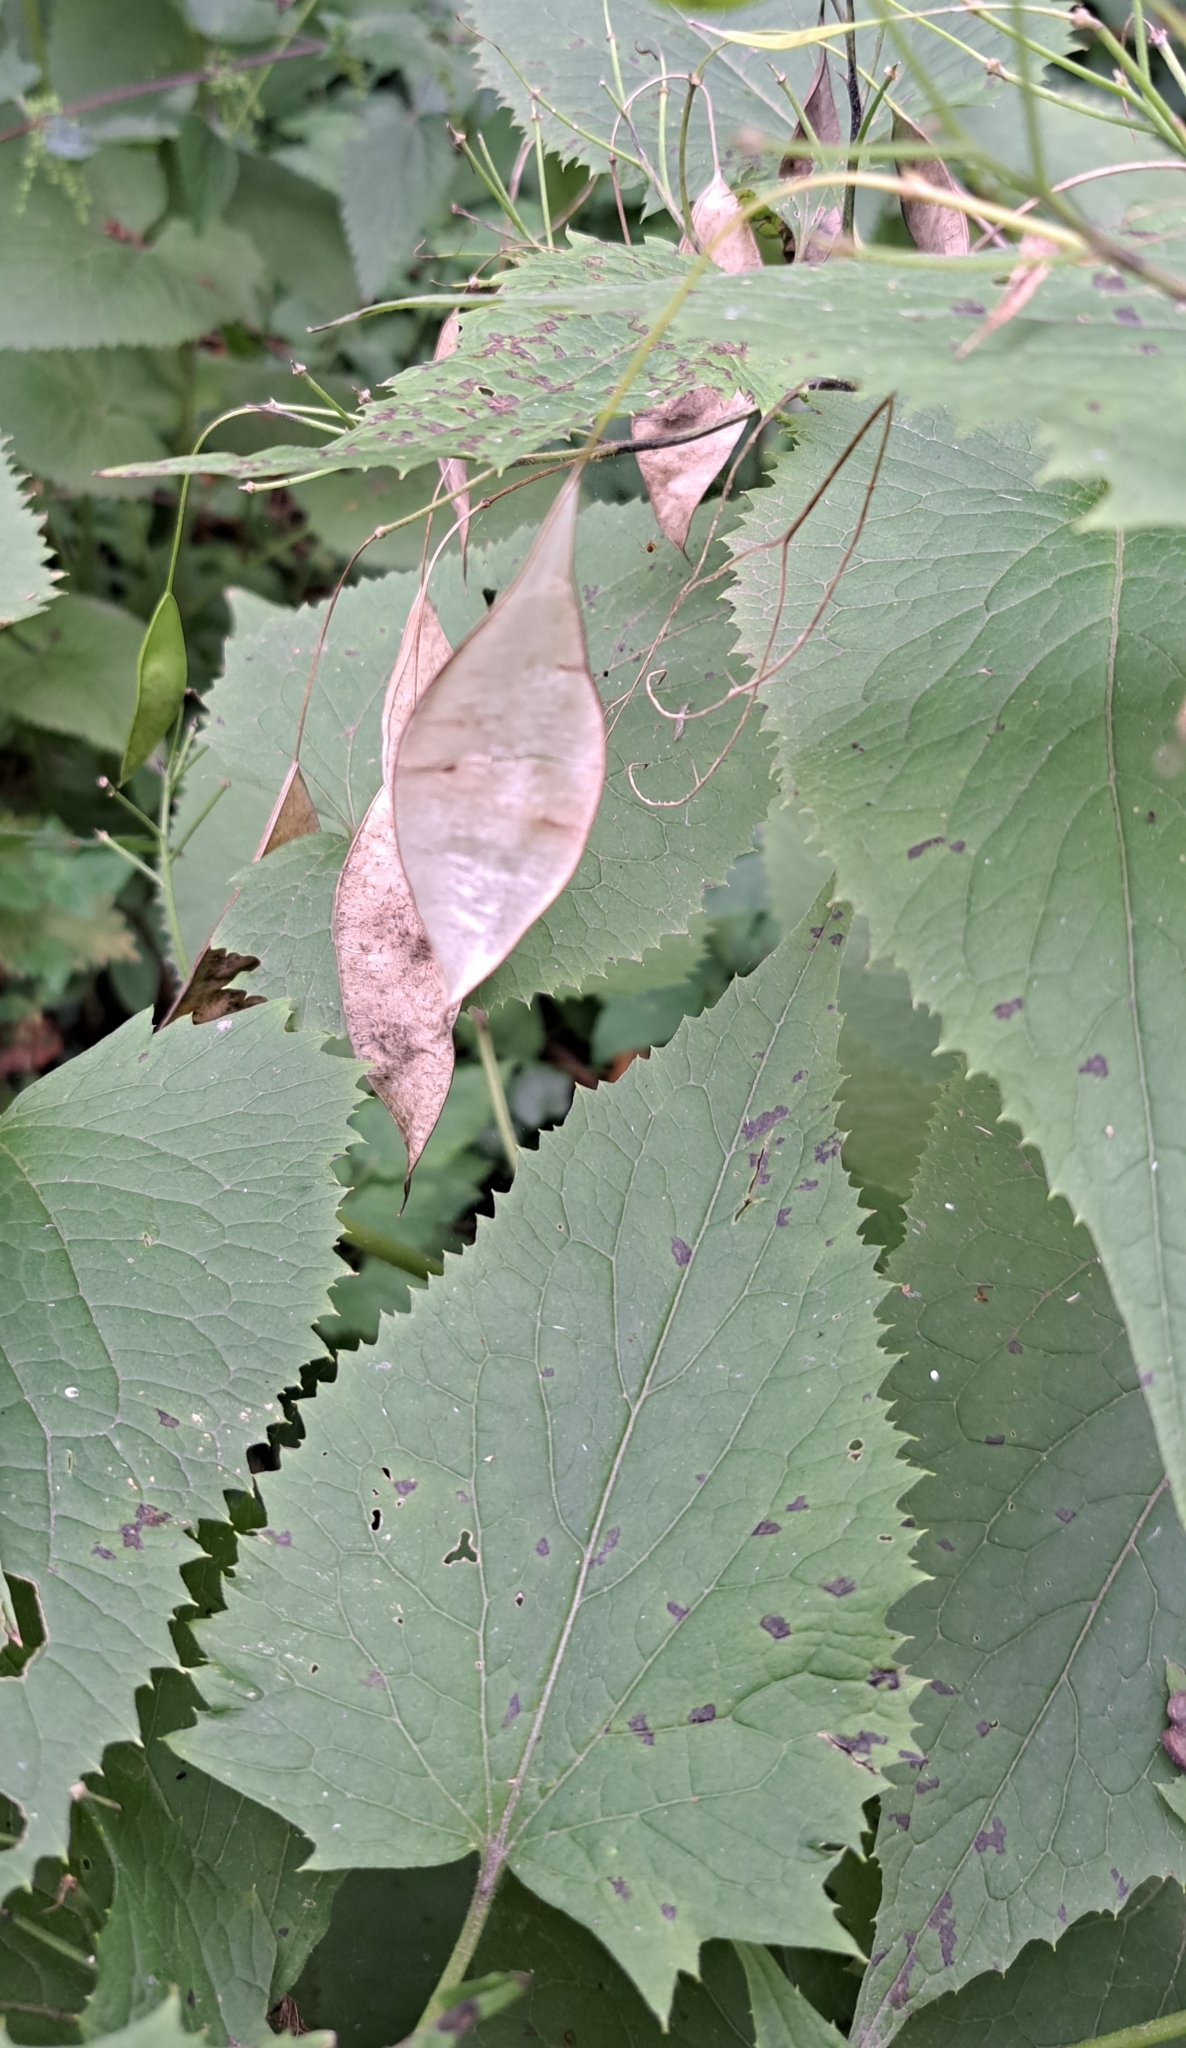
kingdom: Plantae
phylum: Tracheophyta
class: Magnoliopsida
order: Brassicales
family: Brassicaceae
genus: Lunaria
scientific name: Lunaria rediviva
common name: Perennial honesty
